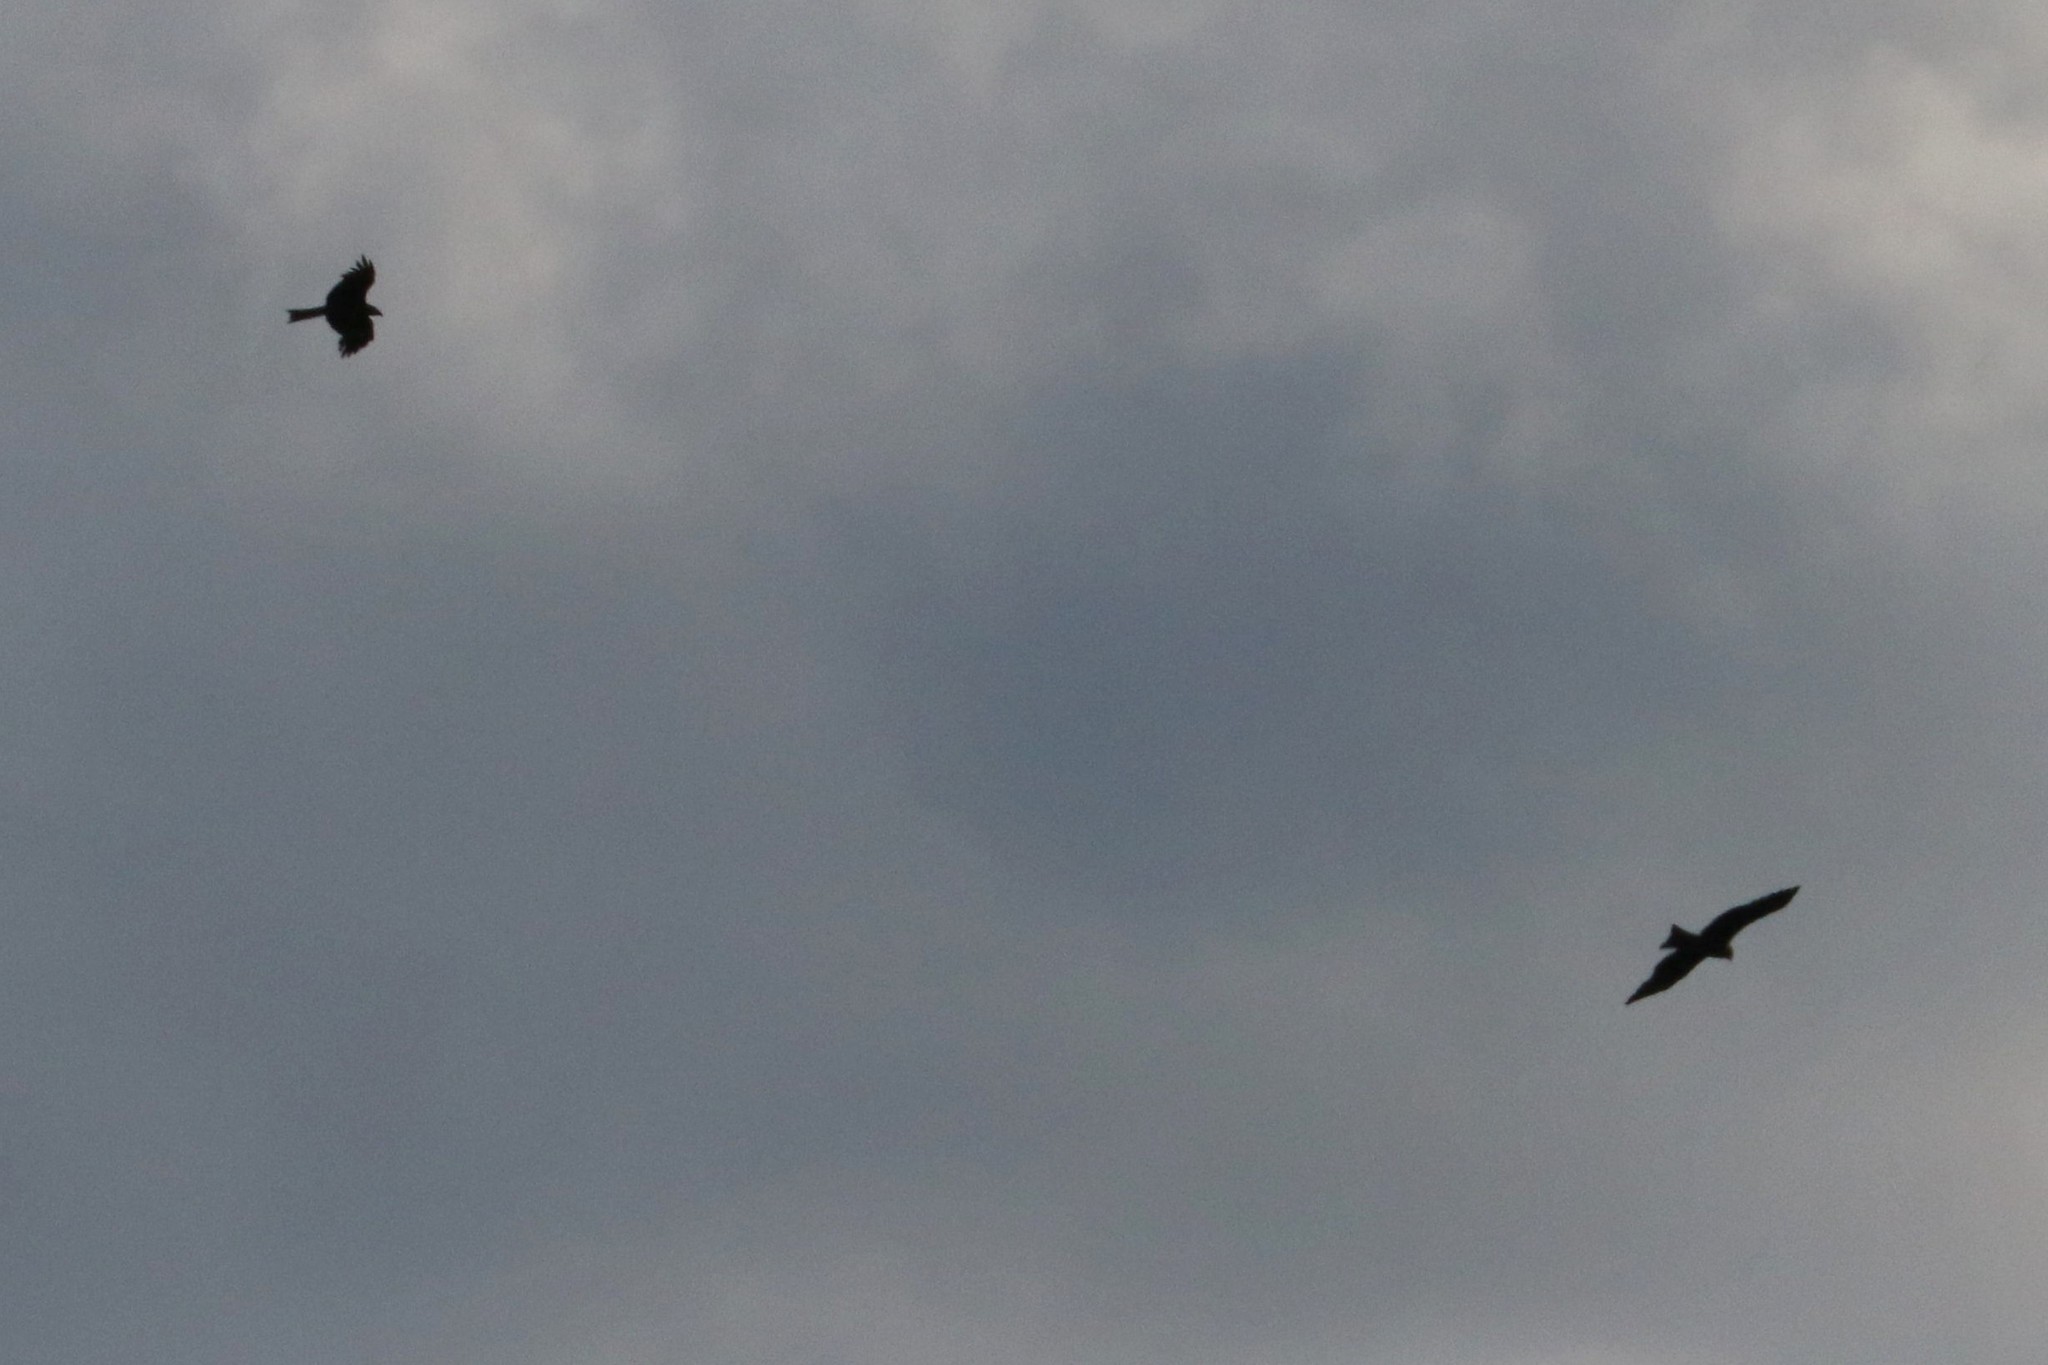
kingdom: Animalia
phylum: Chordata
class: Aves
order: Accipitriformes
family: Accipitridae
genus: Milvus
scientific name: Milvus migrans
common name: Black kite
